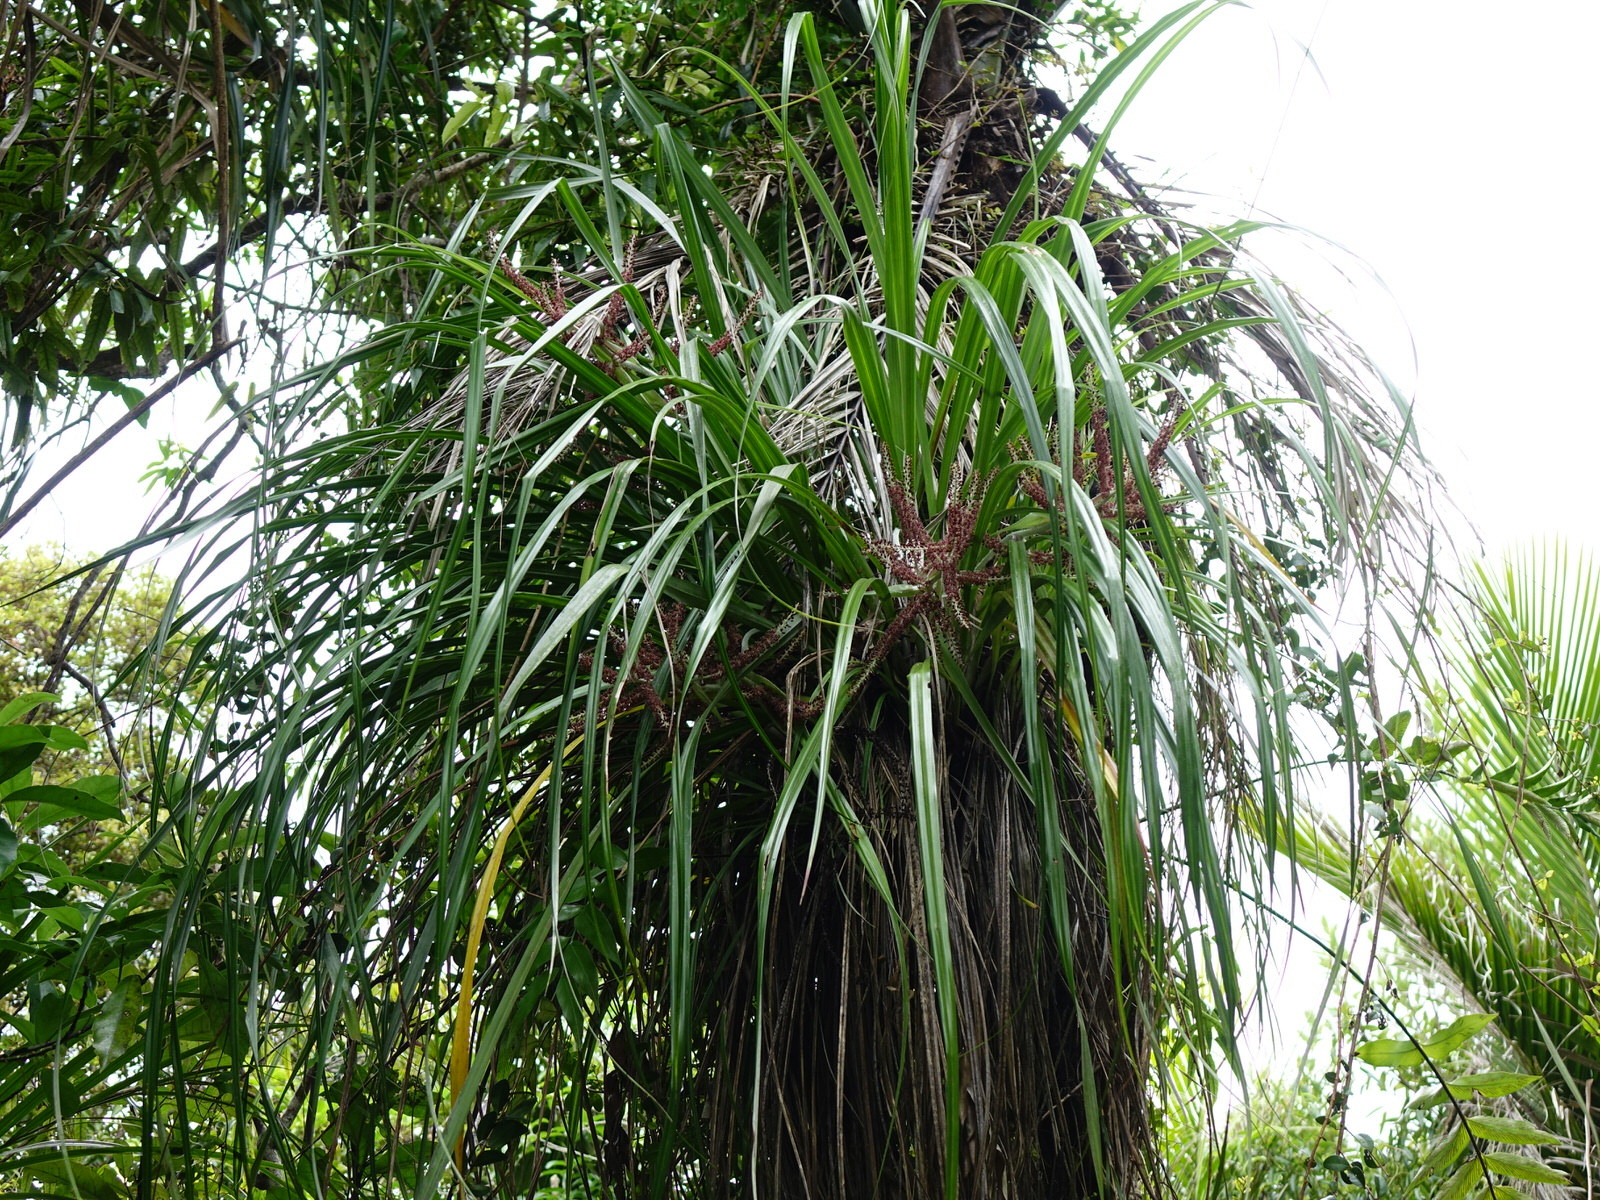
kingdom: Plantae
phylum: Tracheophyta
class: Liliopsida
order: Asparagales
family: Asteliaceae
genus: Astelia
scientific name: Astelia solandri
